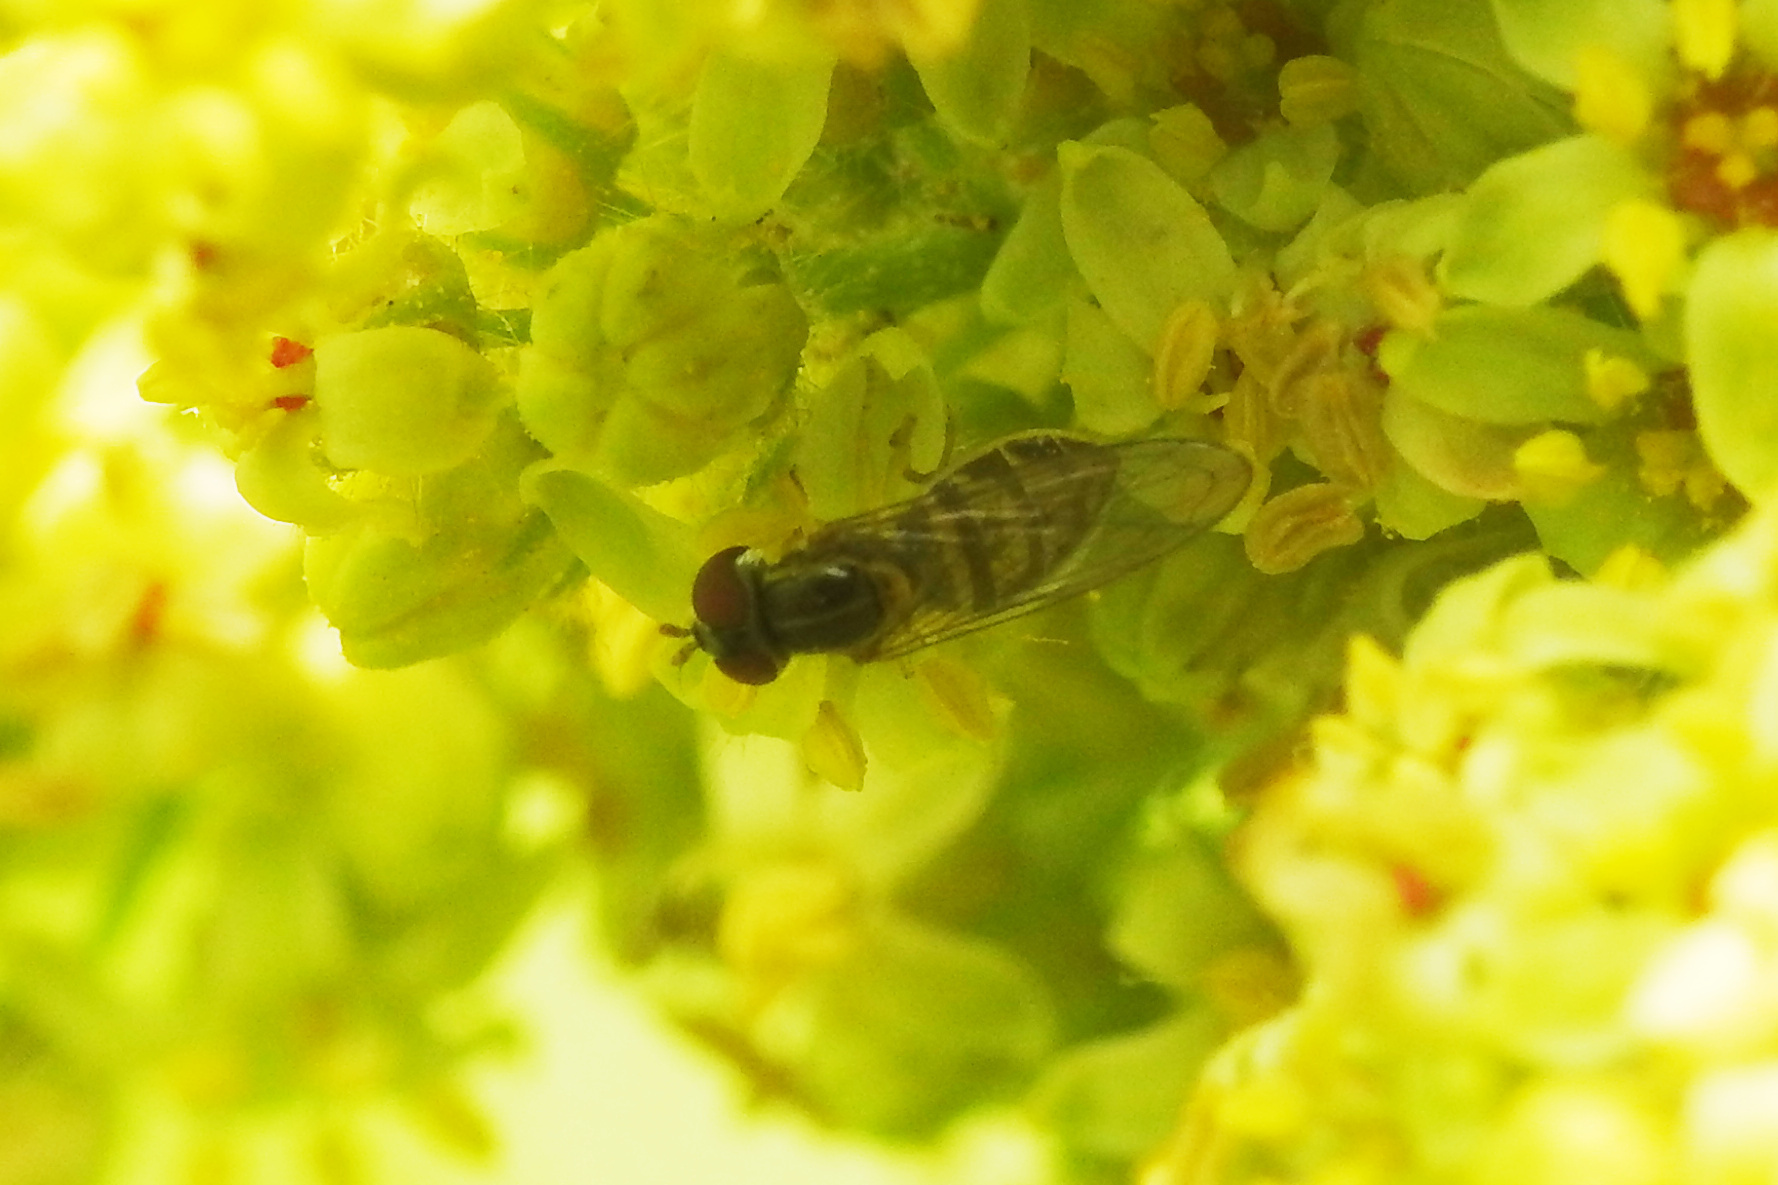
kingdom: Animalia
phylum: Arthropoda
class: Insecta
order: Diptera
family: Syrphidae
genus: Toxomerus
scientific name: Toxomerus marginatus
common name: Syrphid fly
